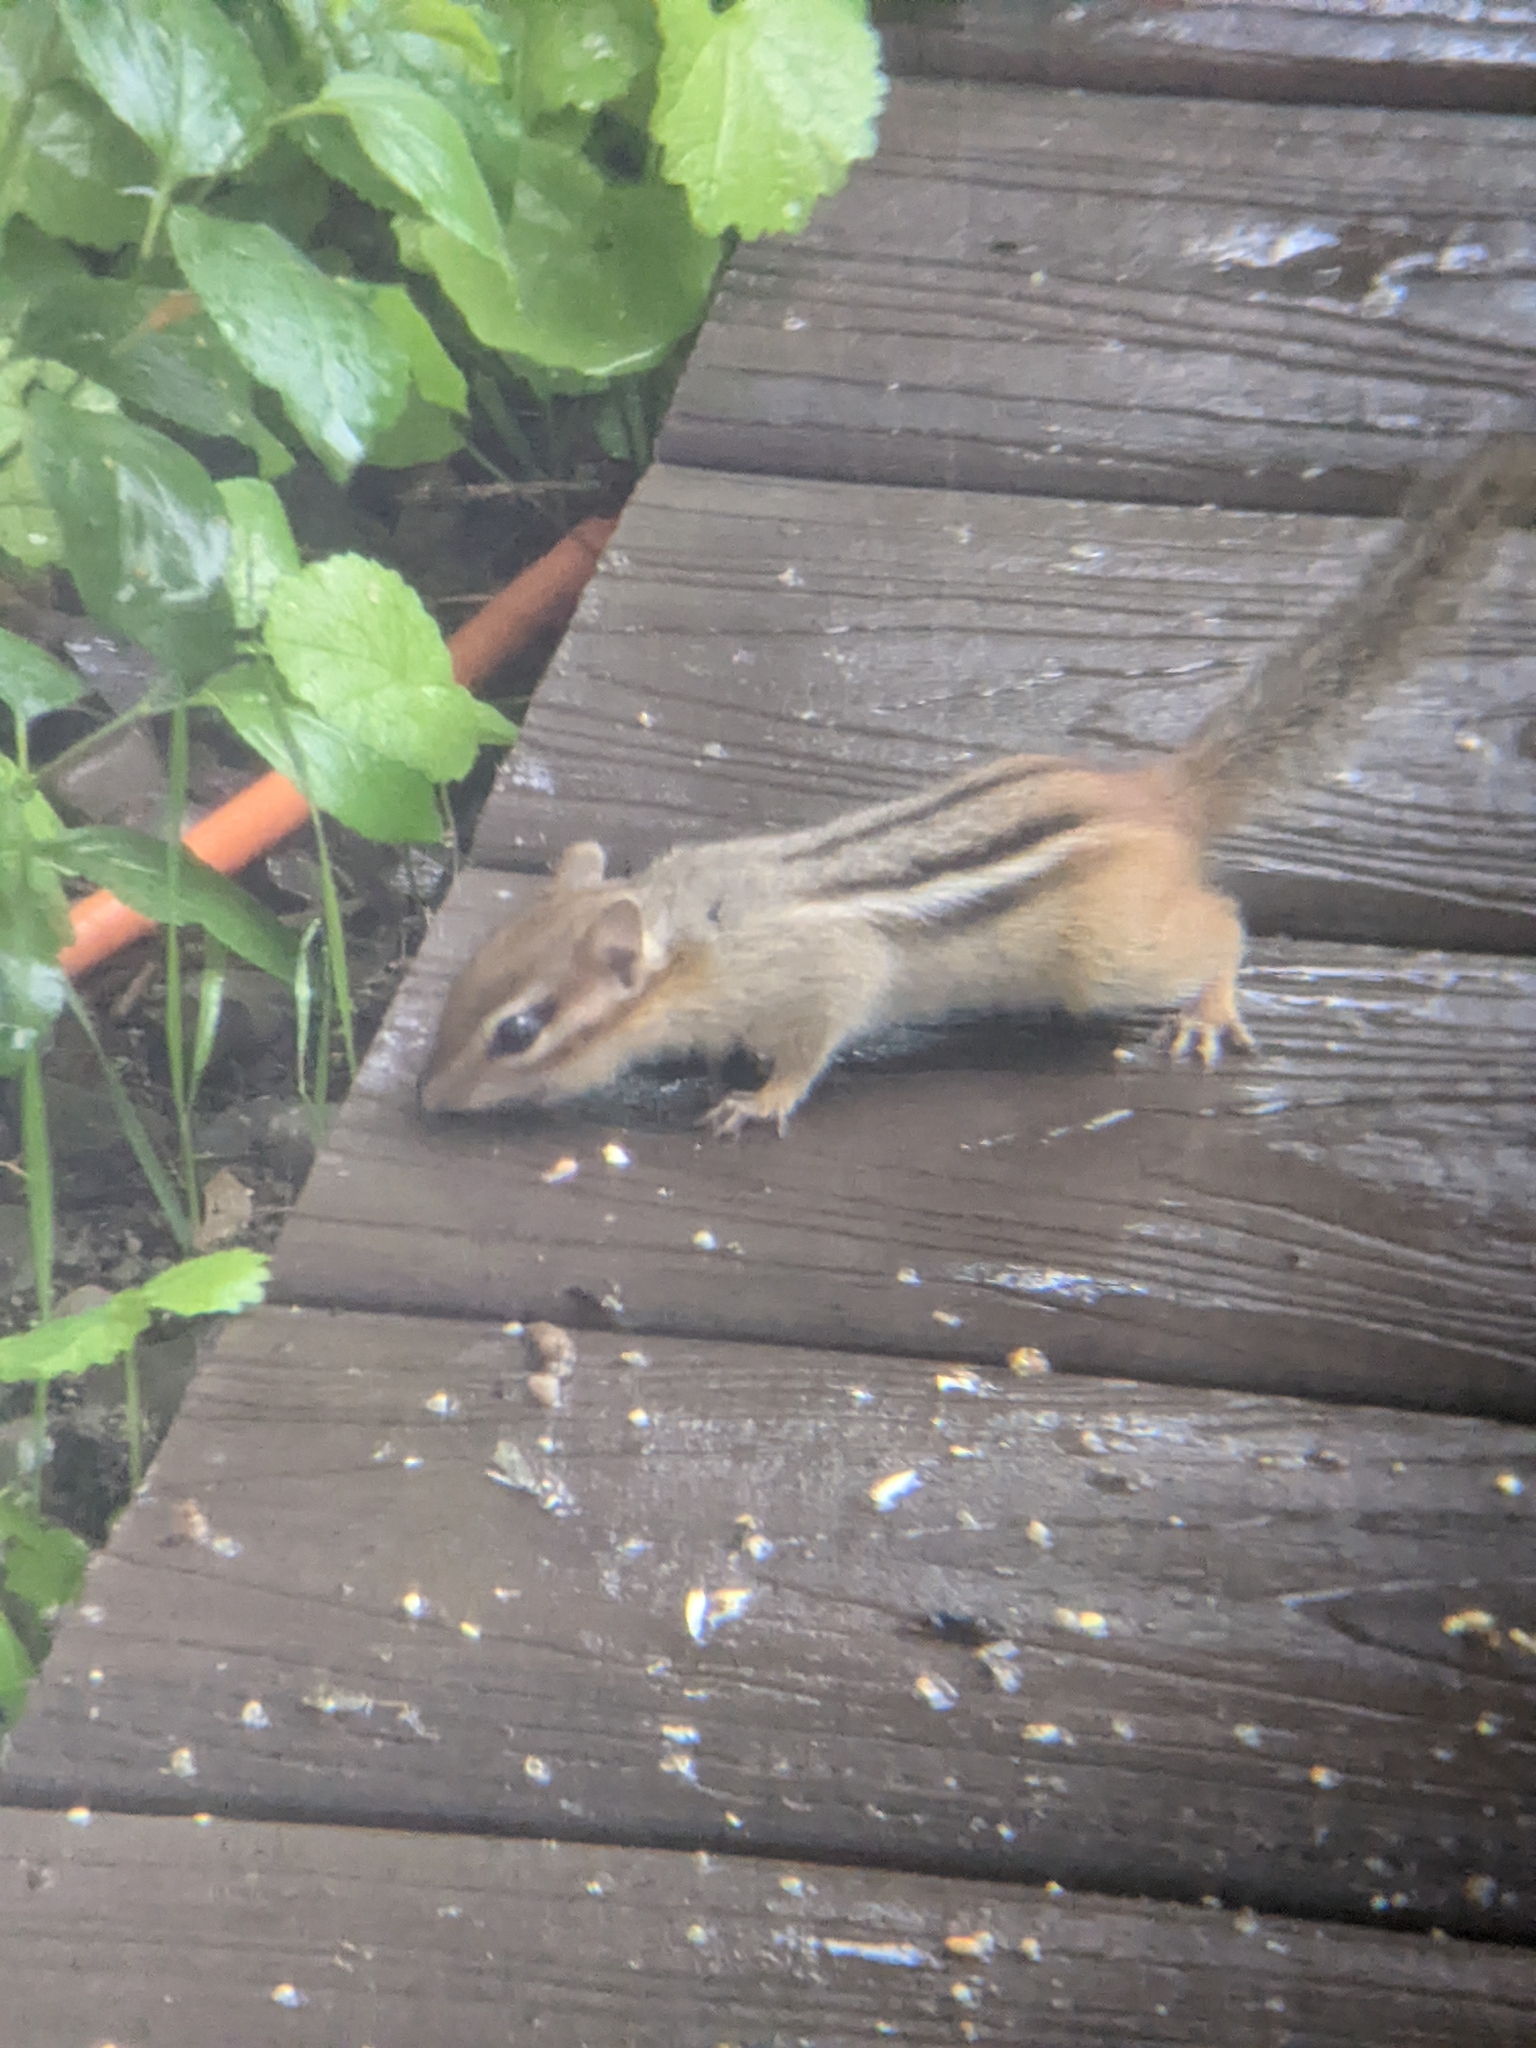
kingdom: Animalia
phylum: Chordata
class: Mammalia
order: Rodentia
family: Sciuridae
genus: Tamias
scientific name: Tamias striatus
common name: Eastern chipmunk
